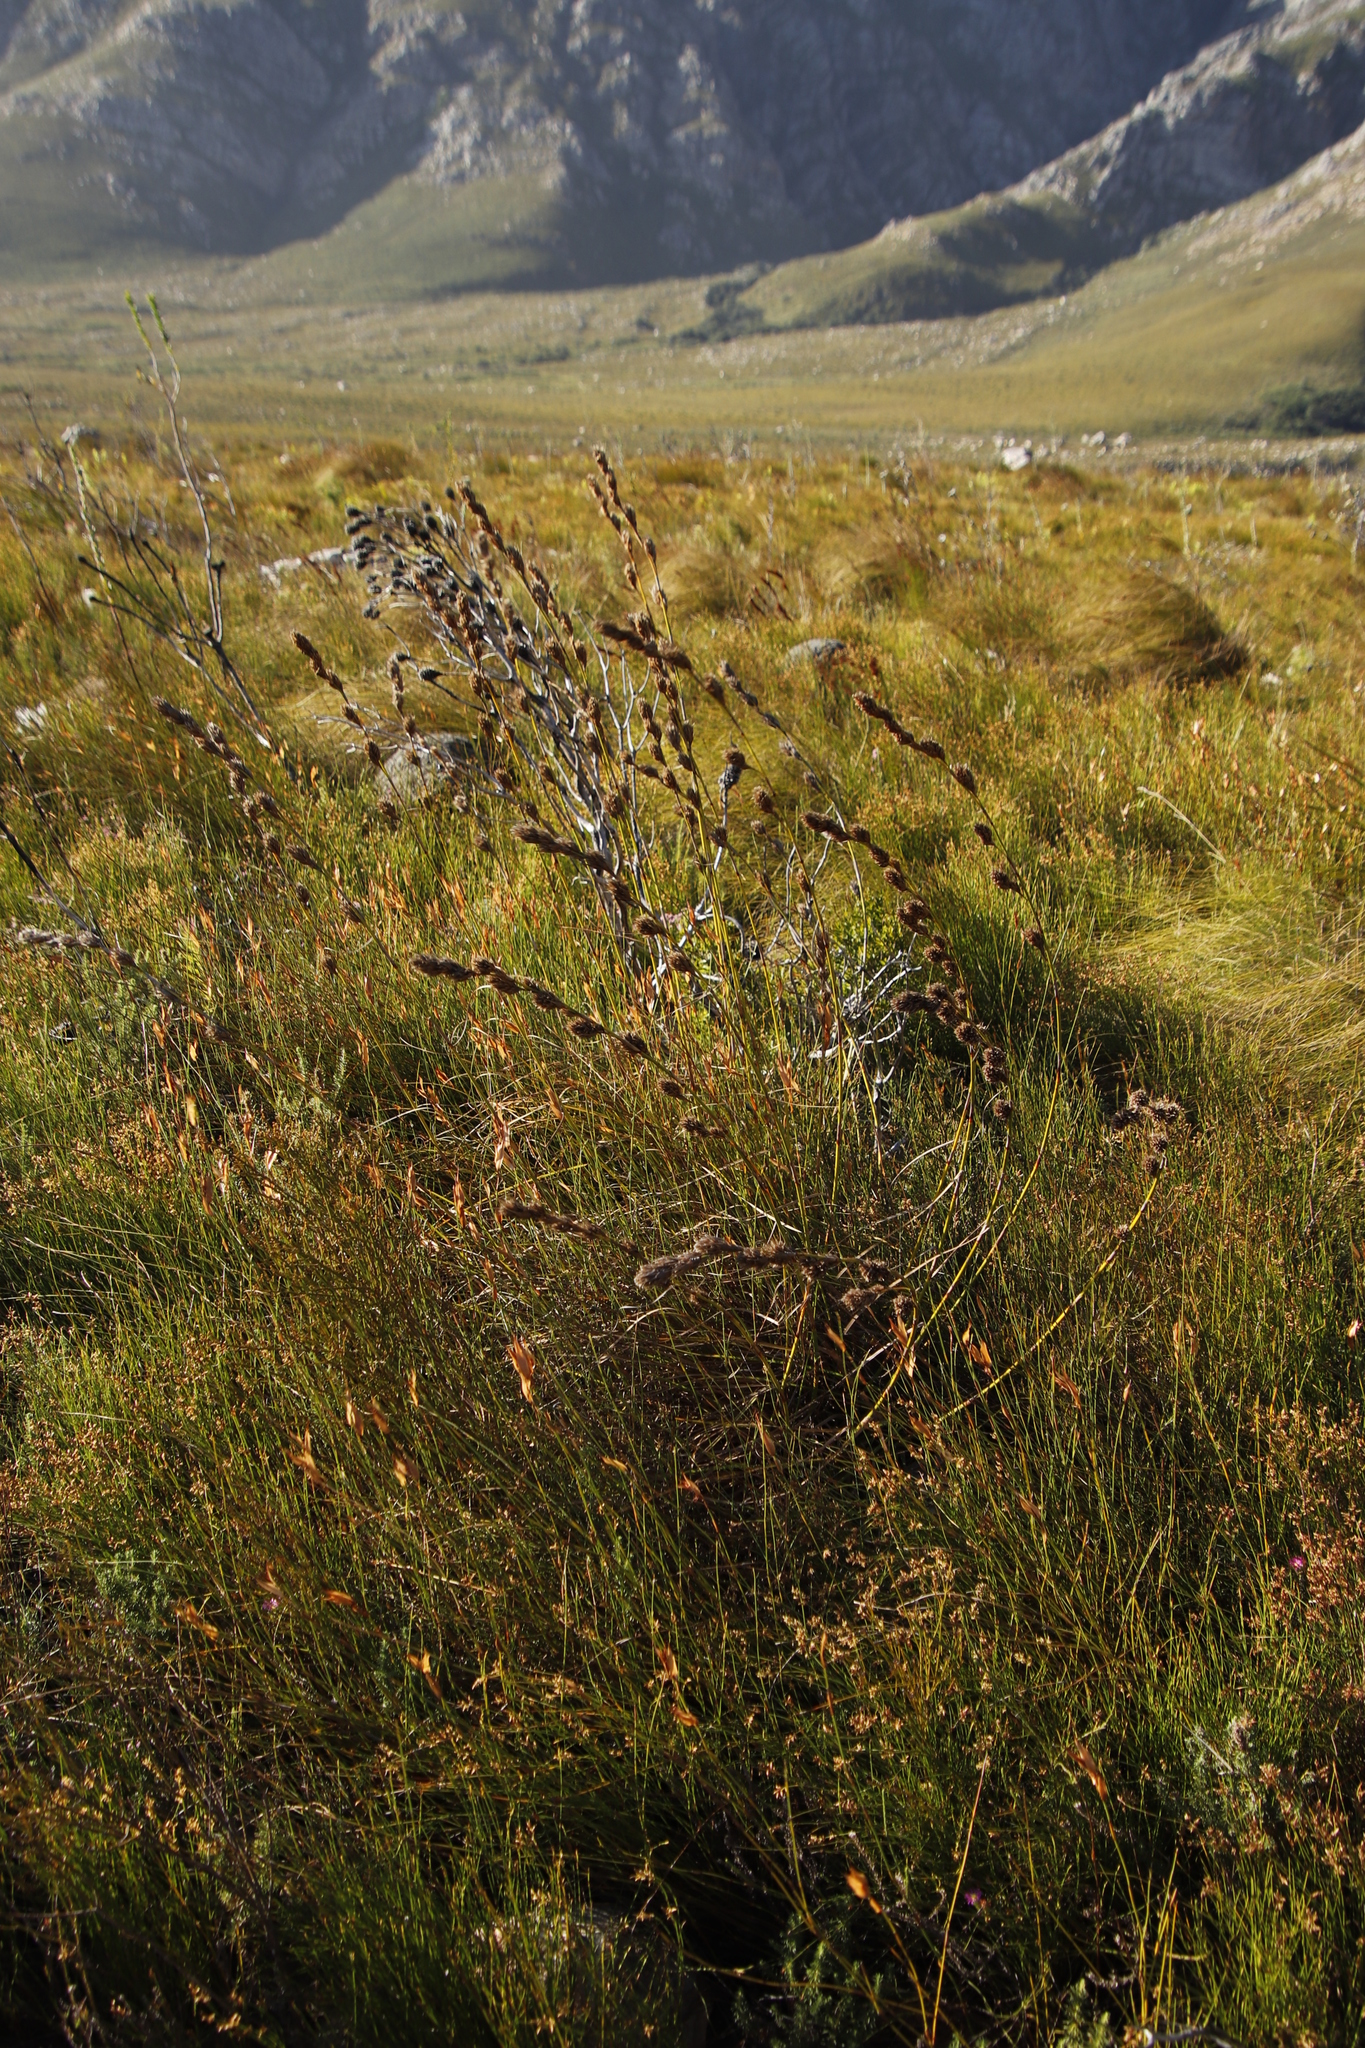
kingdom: Plantae
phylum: Tracheophyta
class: Liliopsida
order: Poales
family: Cyperaceae
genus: Tetraria
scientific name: Tetraria bromoides
